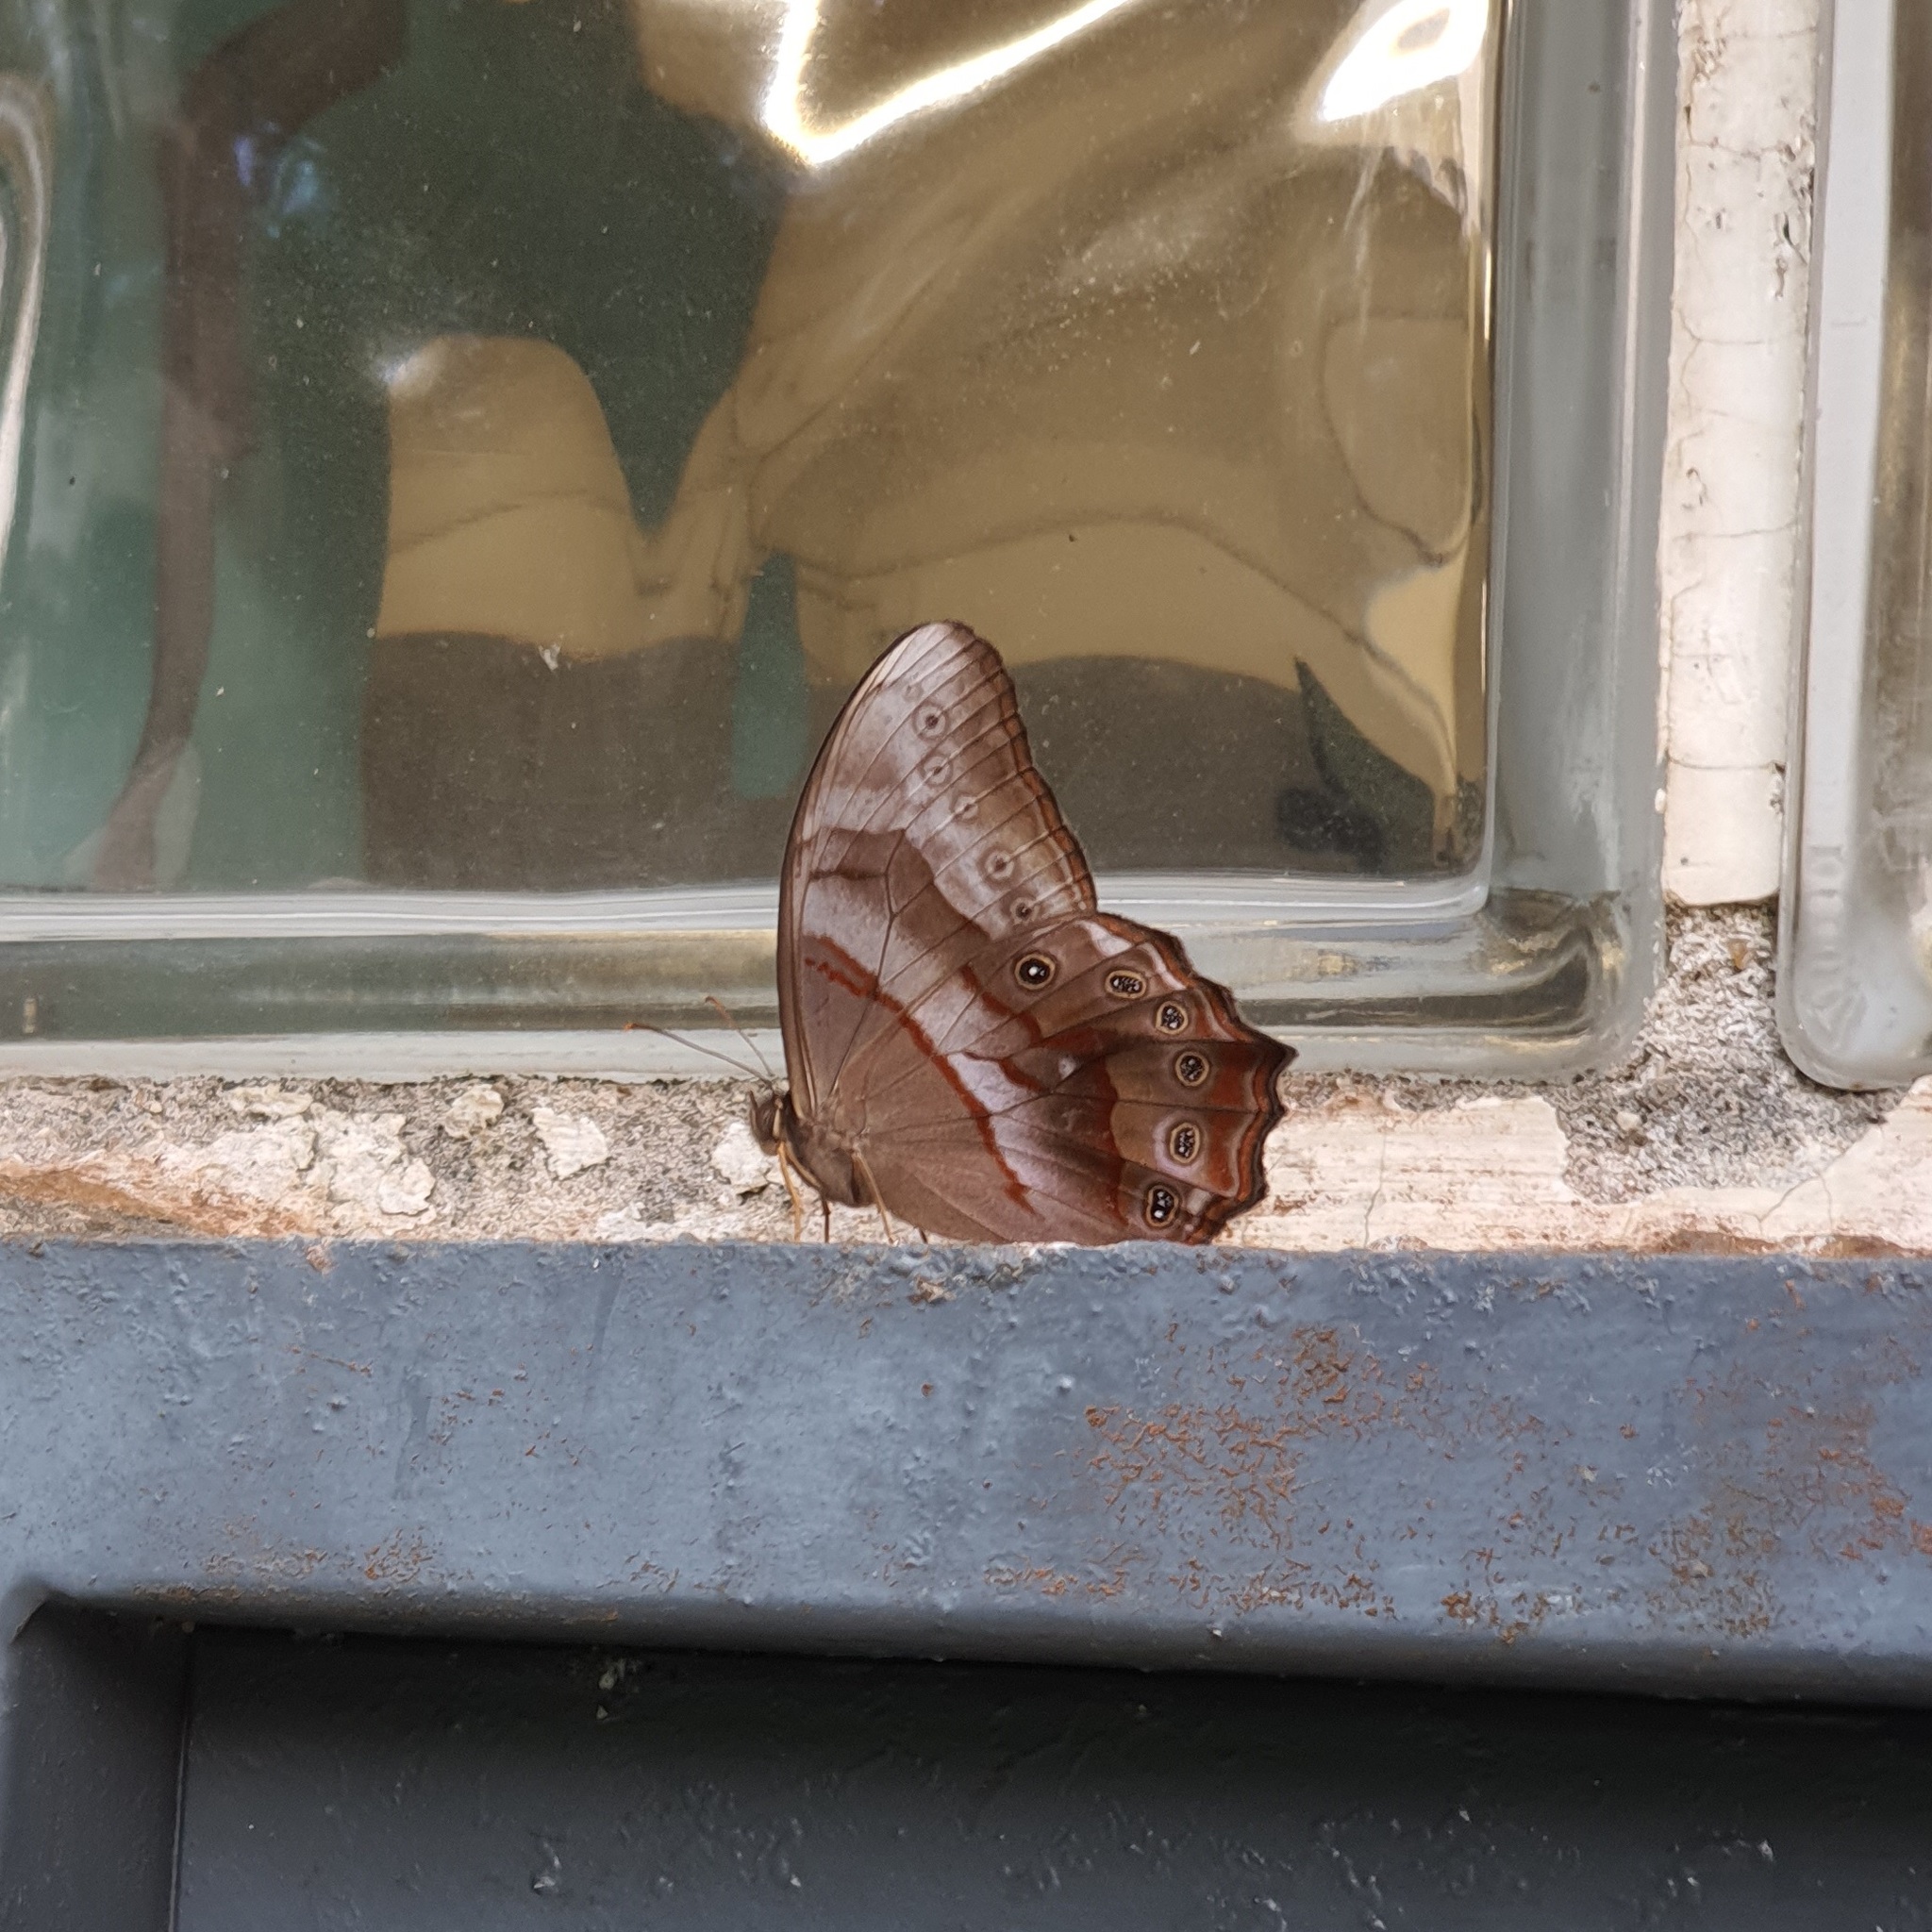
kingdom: Animalia
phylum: Arthropoda
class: Insecta
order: Lepidoptera
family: Nymphalidae
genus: Lethe
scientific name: Lethe chandica
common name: Angled red forester
